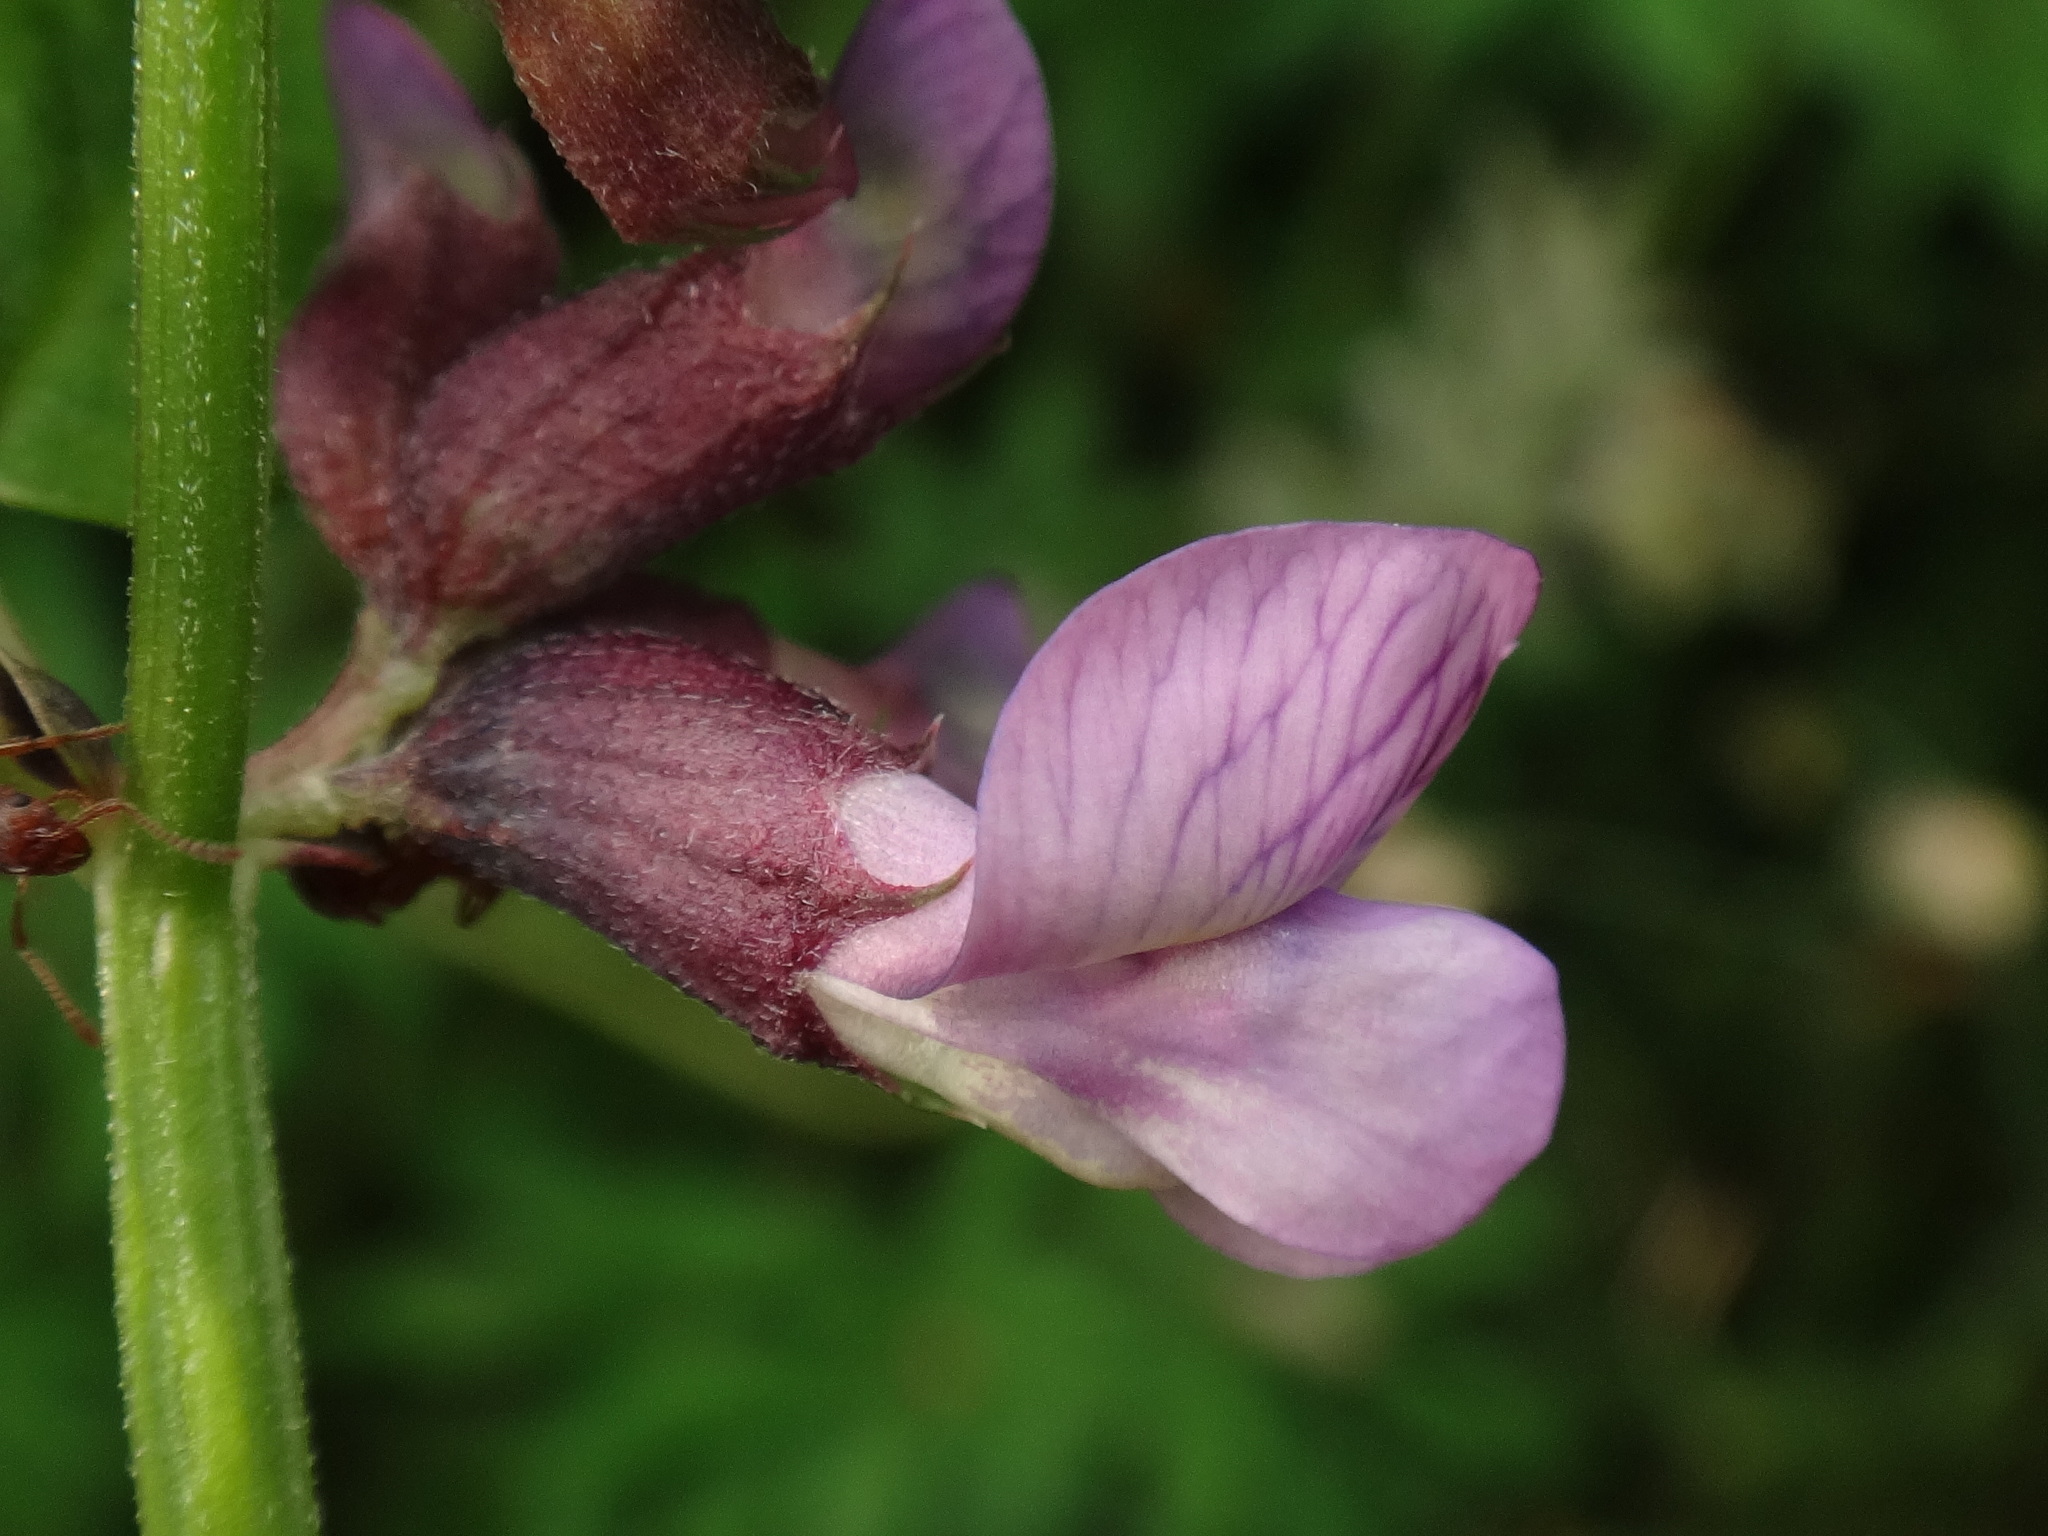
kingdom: Plantae
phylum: Tracheophyta
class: Magnoliopsida
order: Fabales
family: Fabaceae
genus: Vicia
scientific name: Vicia sepium
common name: Bush vetch
